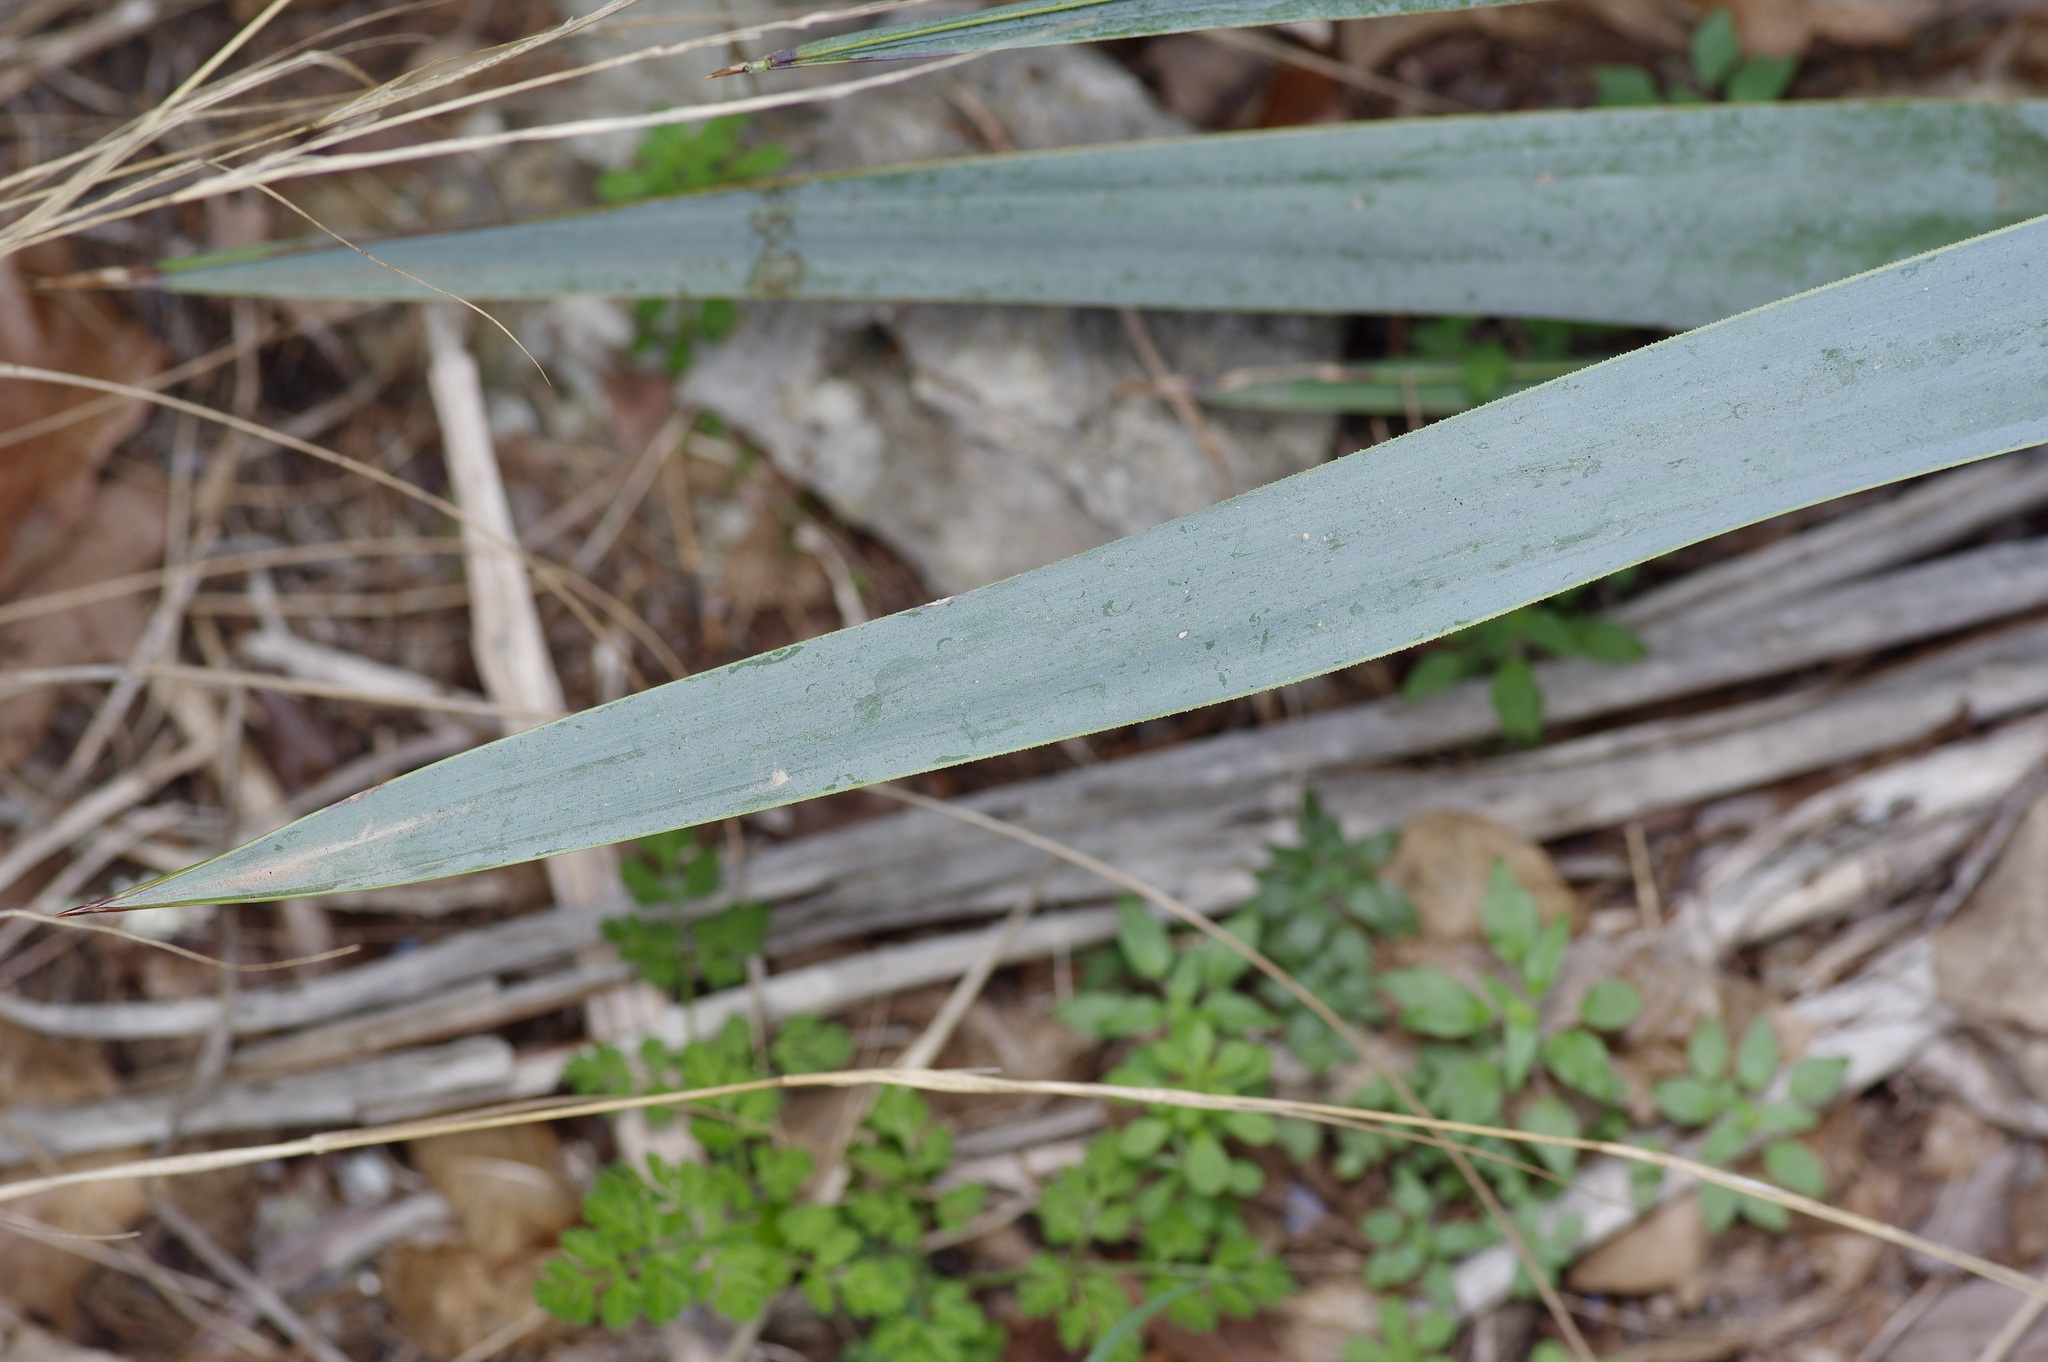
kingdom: Plantae
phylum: Tracheophyta
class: Liliopsida
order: Asparagales
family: Asparagaceae
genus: Yucca
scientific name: Yucca pallida
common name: Pale leaf yucca
